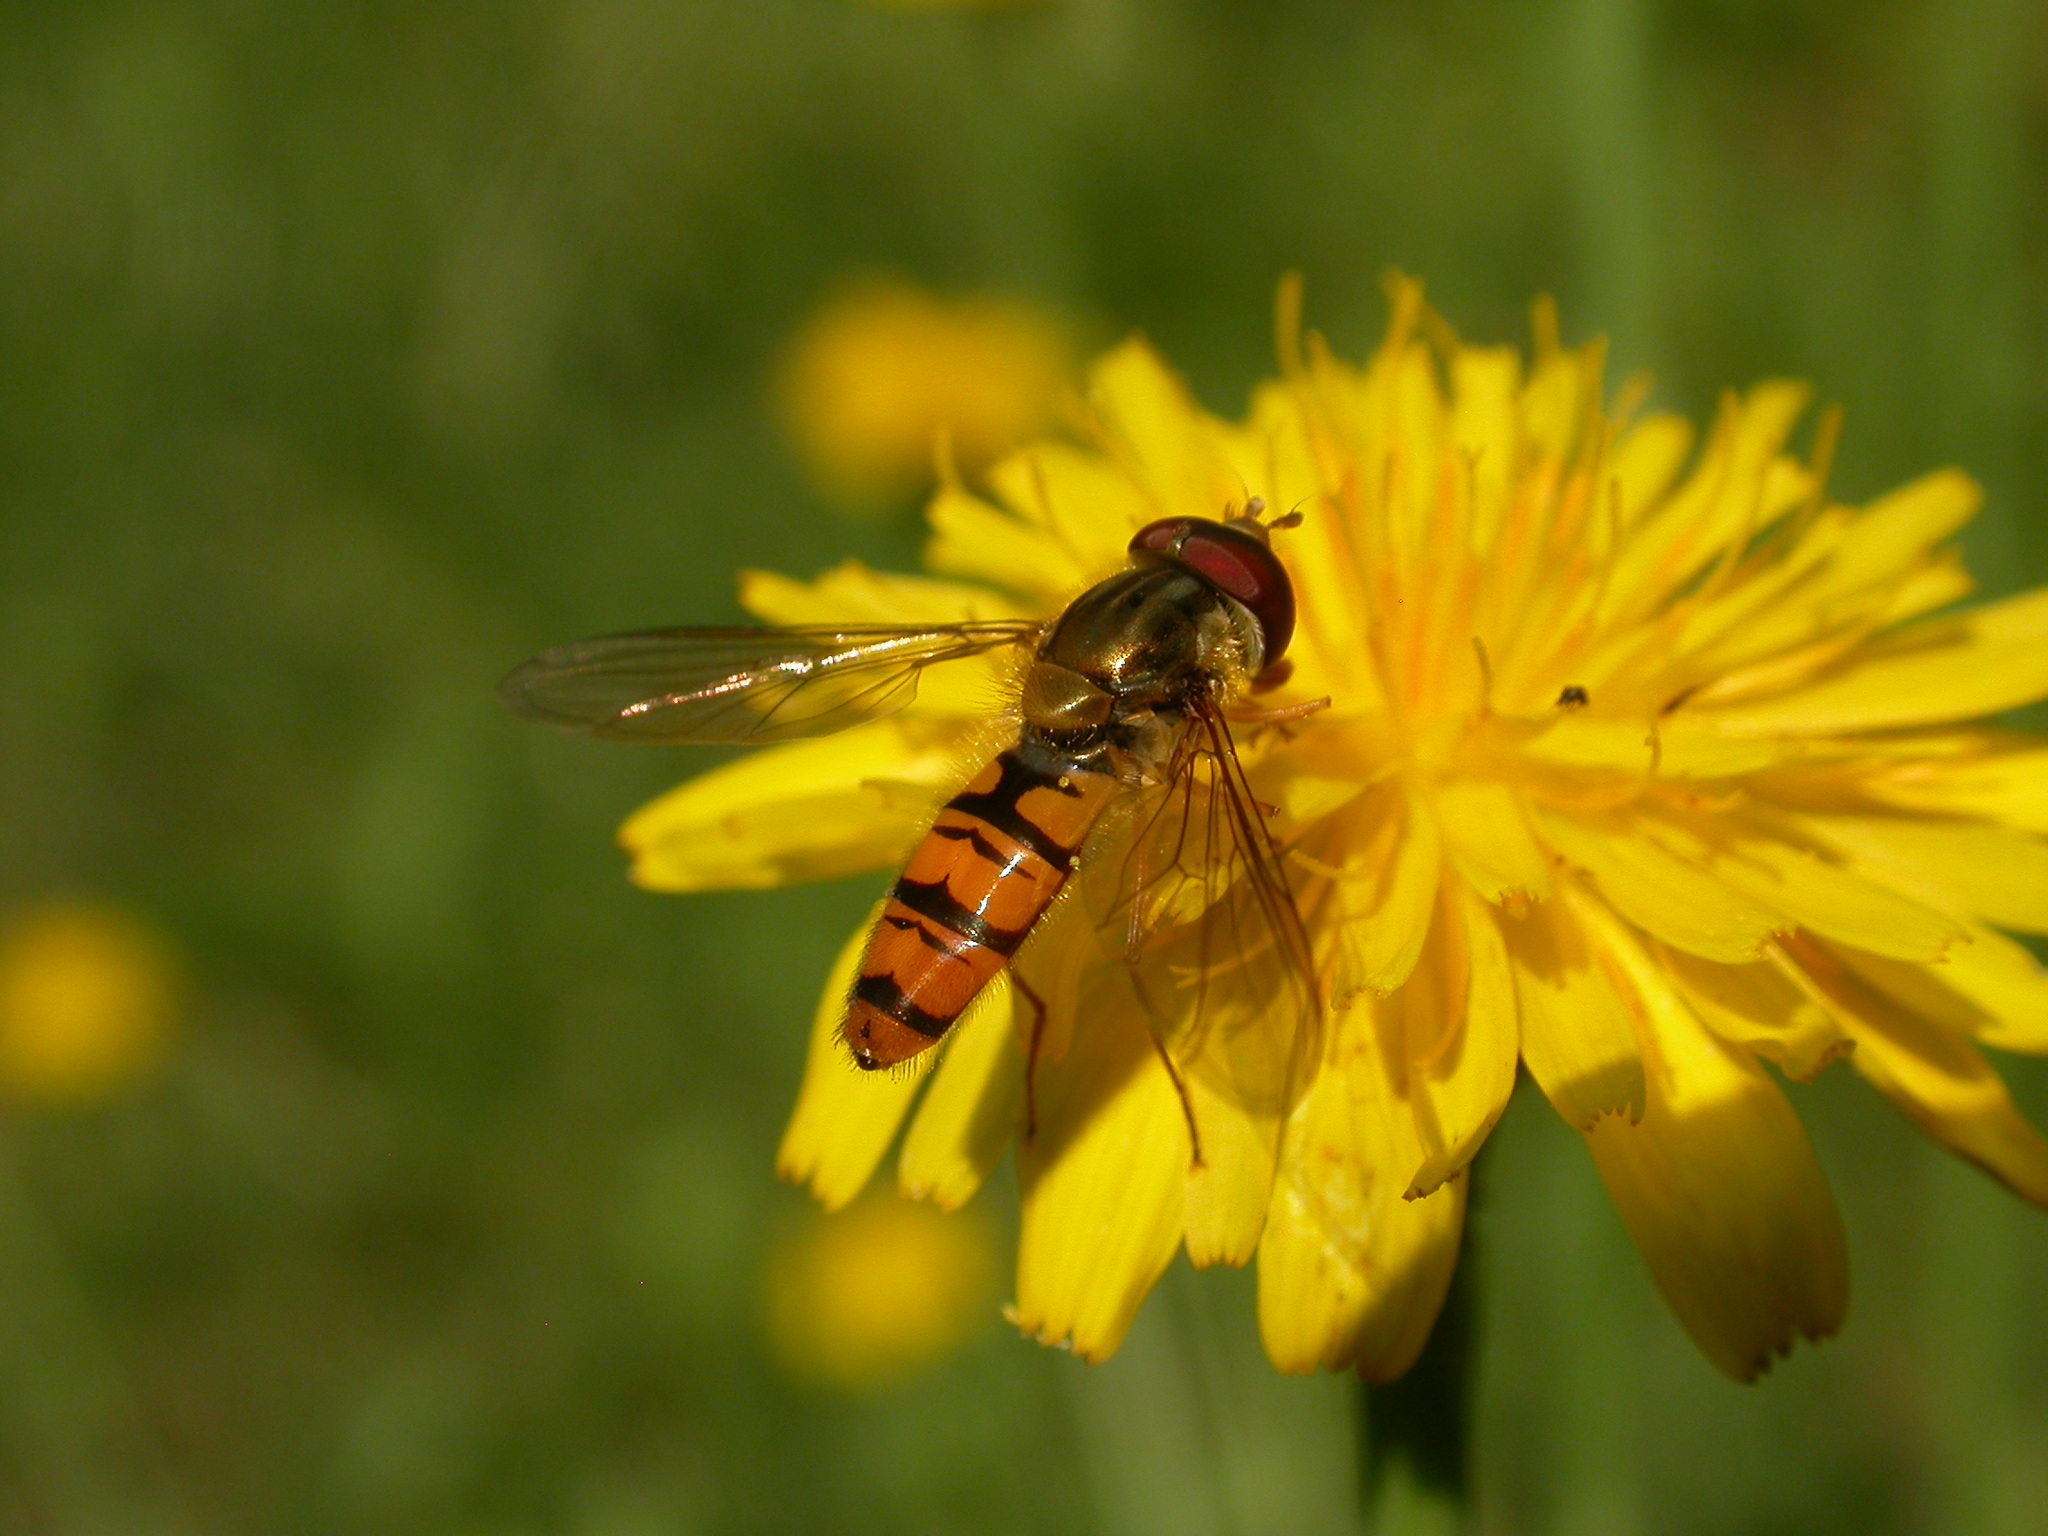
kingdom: Animalia
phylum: Arthropoda
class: Insecta
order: Diptera
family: Syrphidae
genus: Episyrphus
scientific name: Episyrphus balteatus
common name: Marmalade hoverfly
